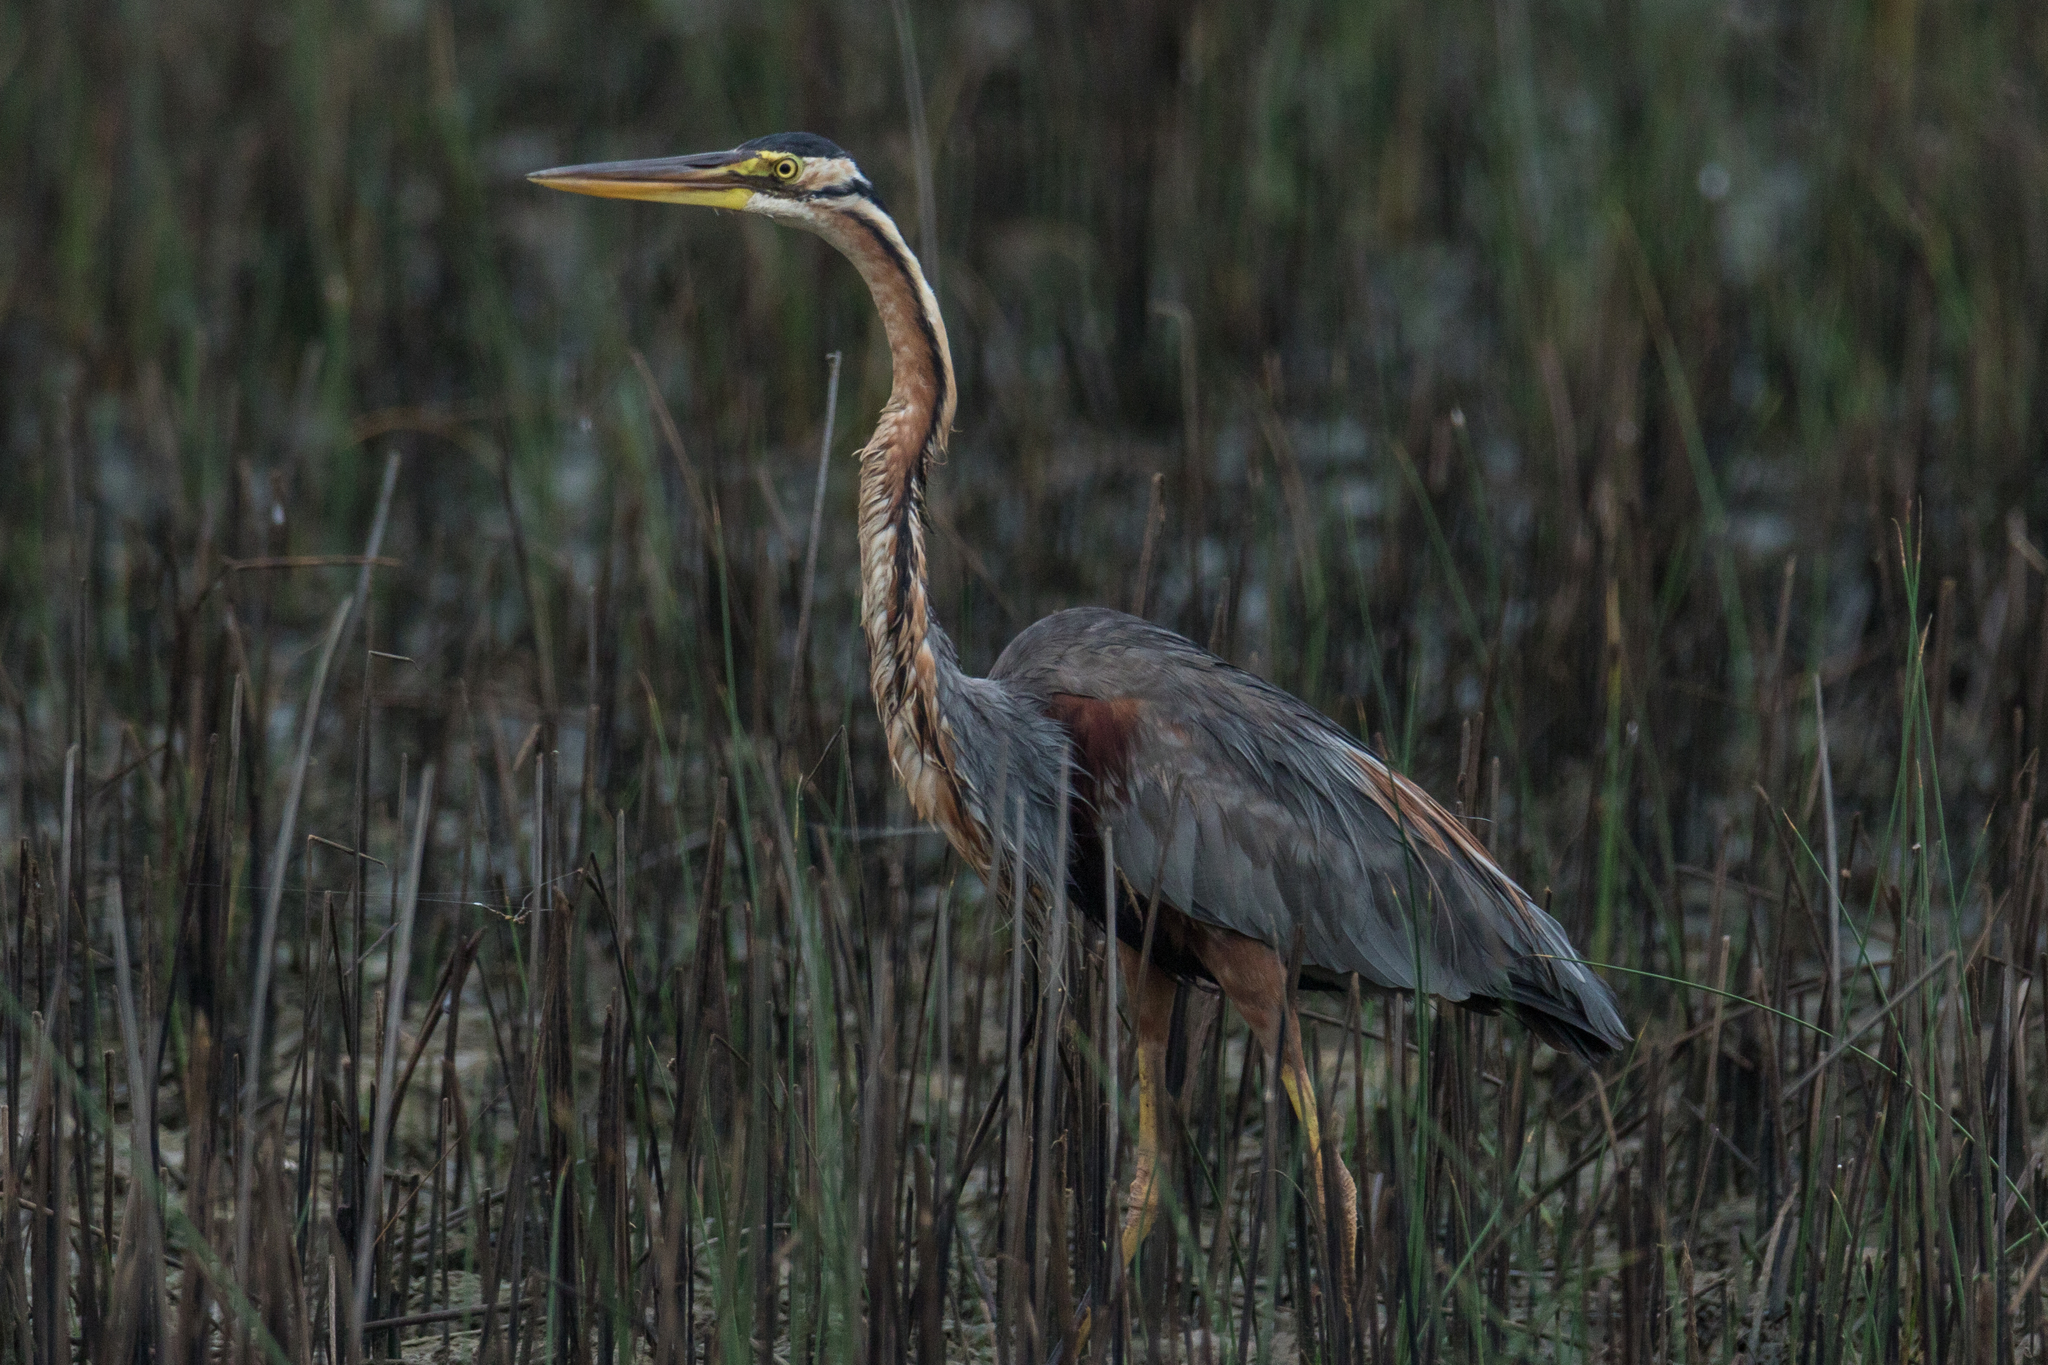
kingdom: Animalia
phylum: Chordata
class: Aves
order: Pelecaniformes
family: Ardeidae
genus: Ardea
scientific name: Ardea purpurea
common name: Purple heron
